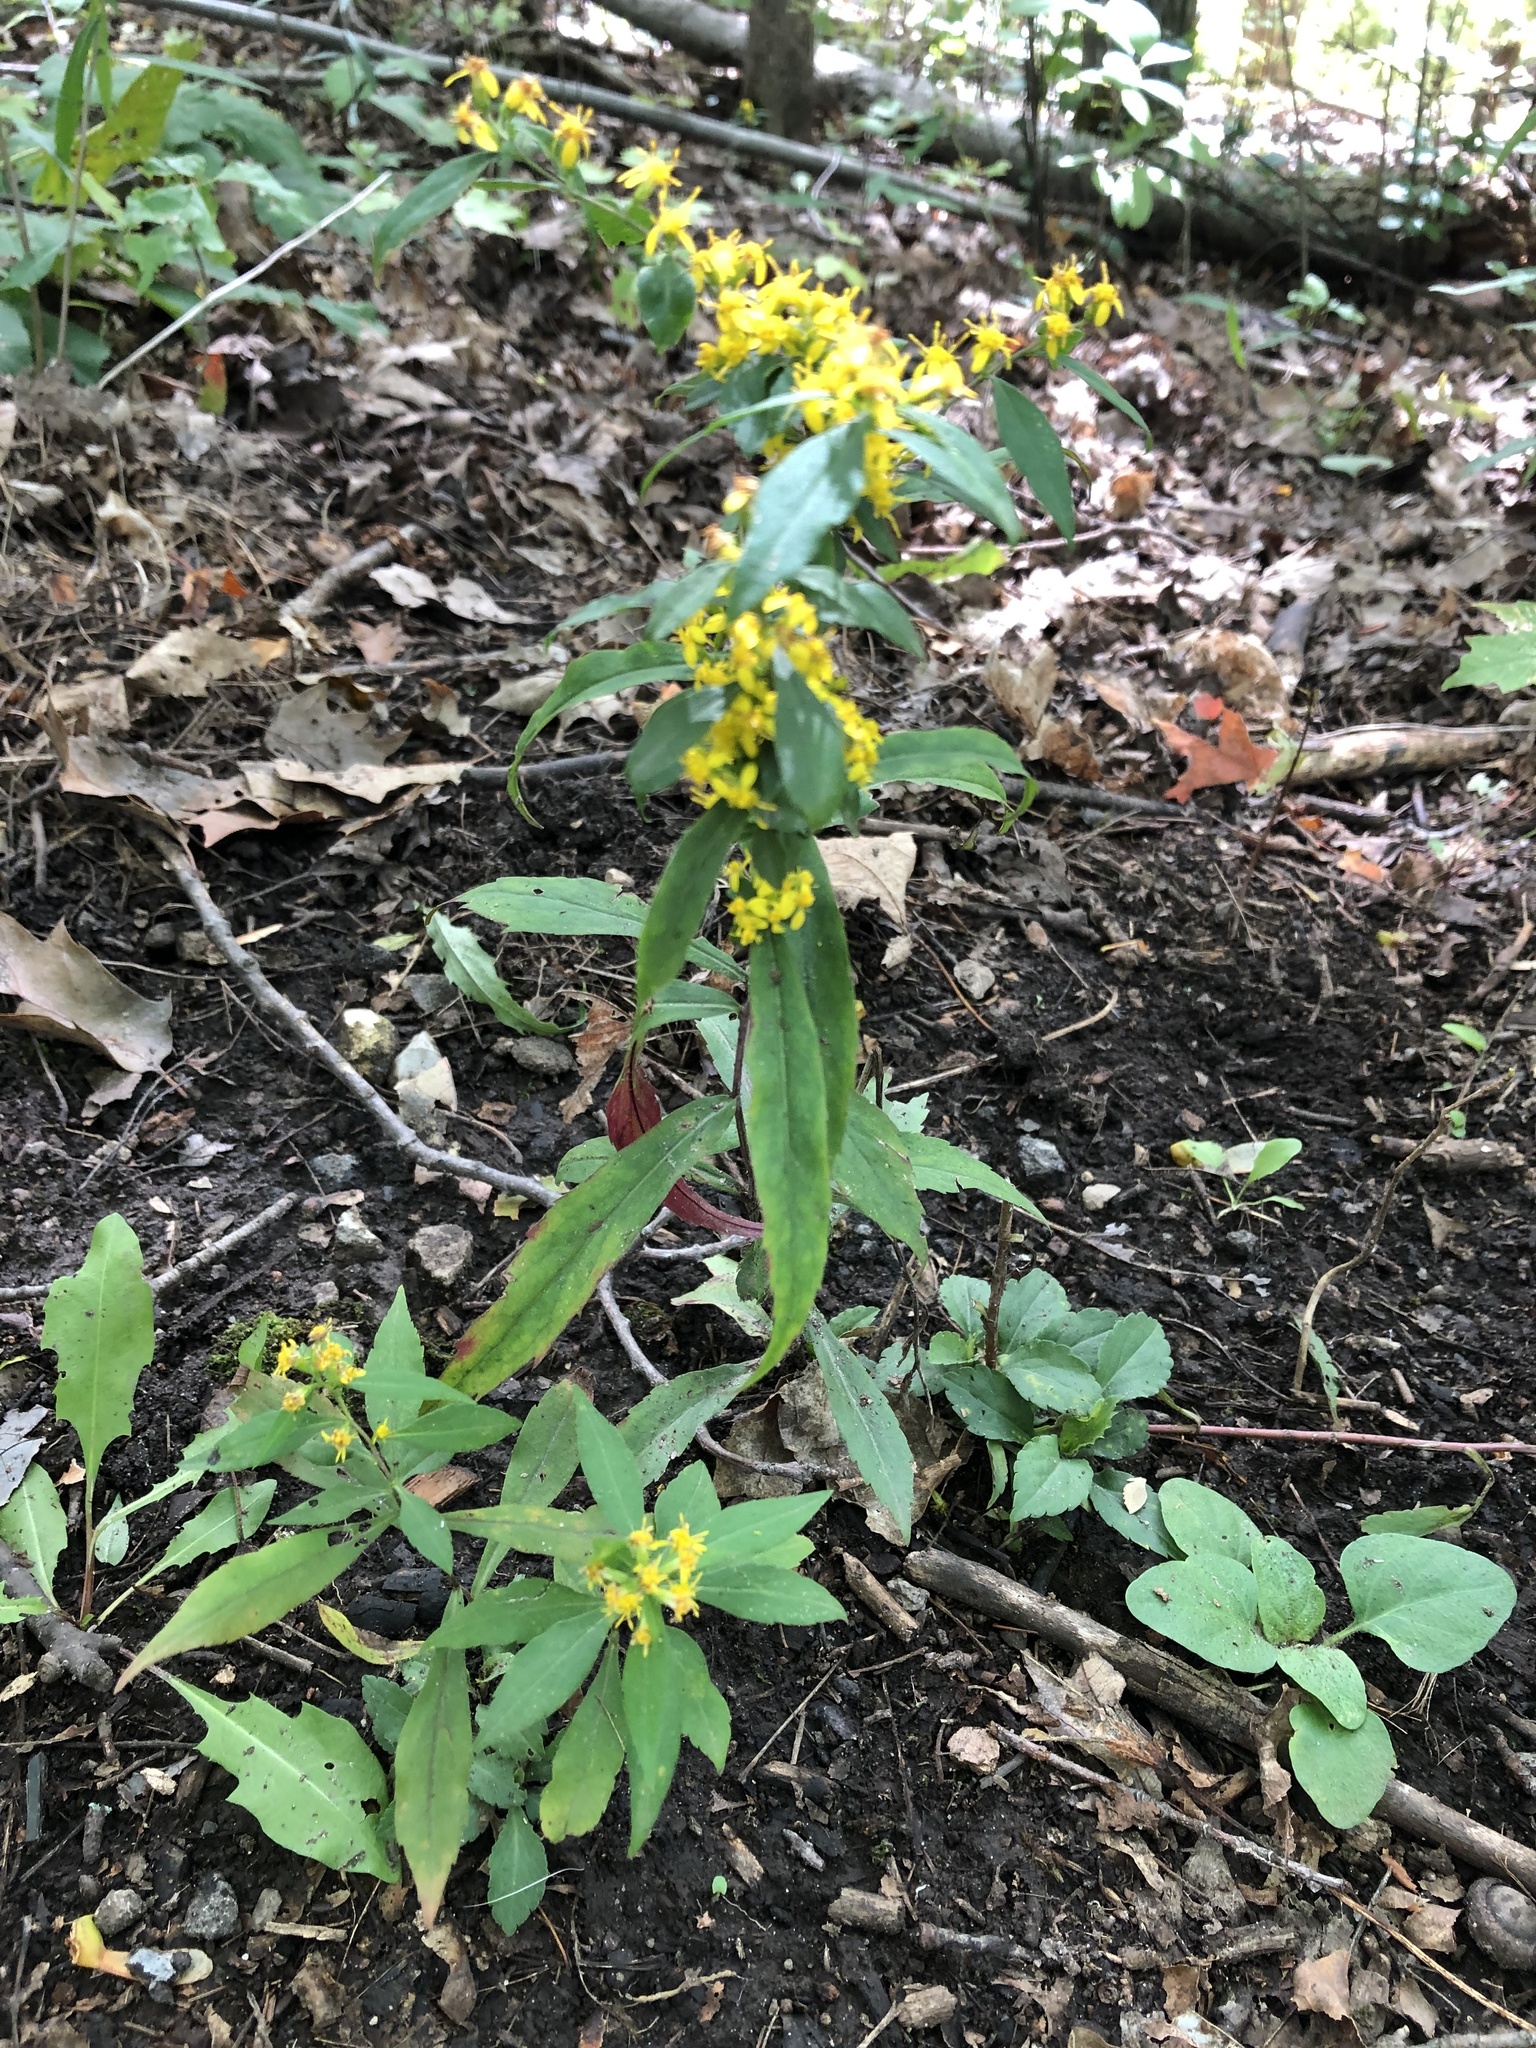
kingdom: Plantae
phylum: Tracheophyta
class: Magnoliopsida
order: Asterales
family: Asteraceae
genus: Solidago
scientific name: Solidago caesia
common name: Woodland goldenrod
